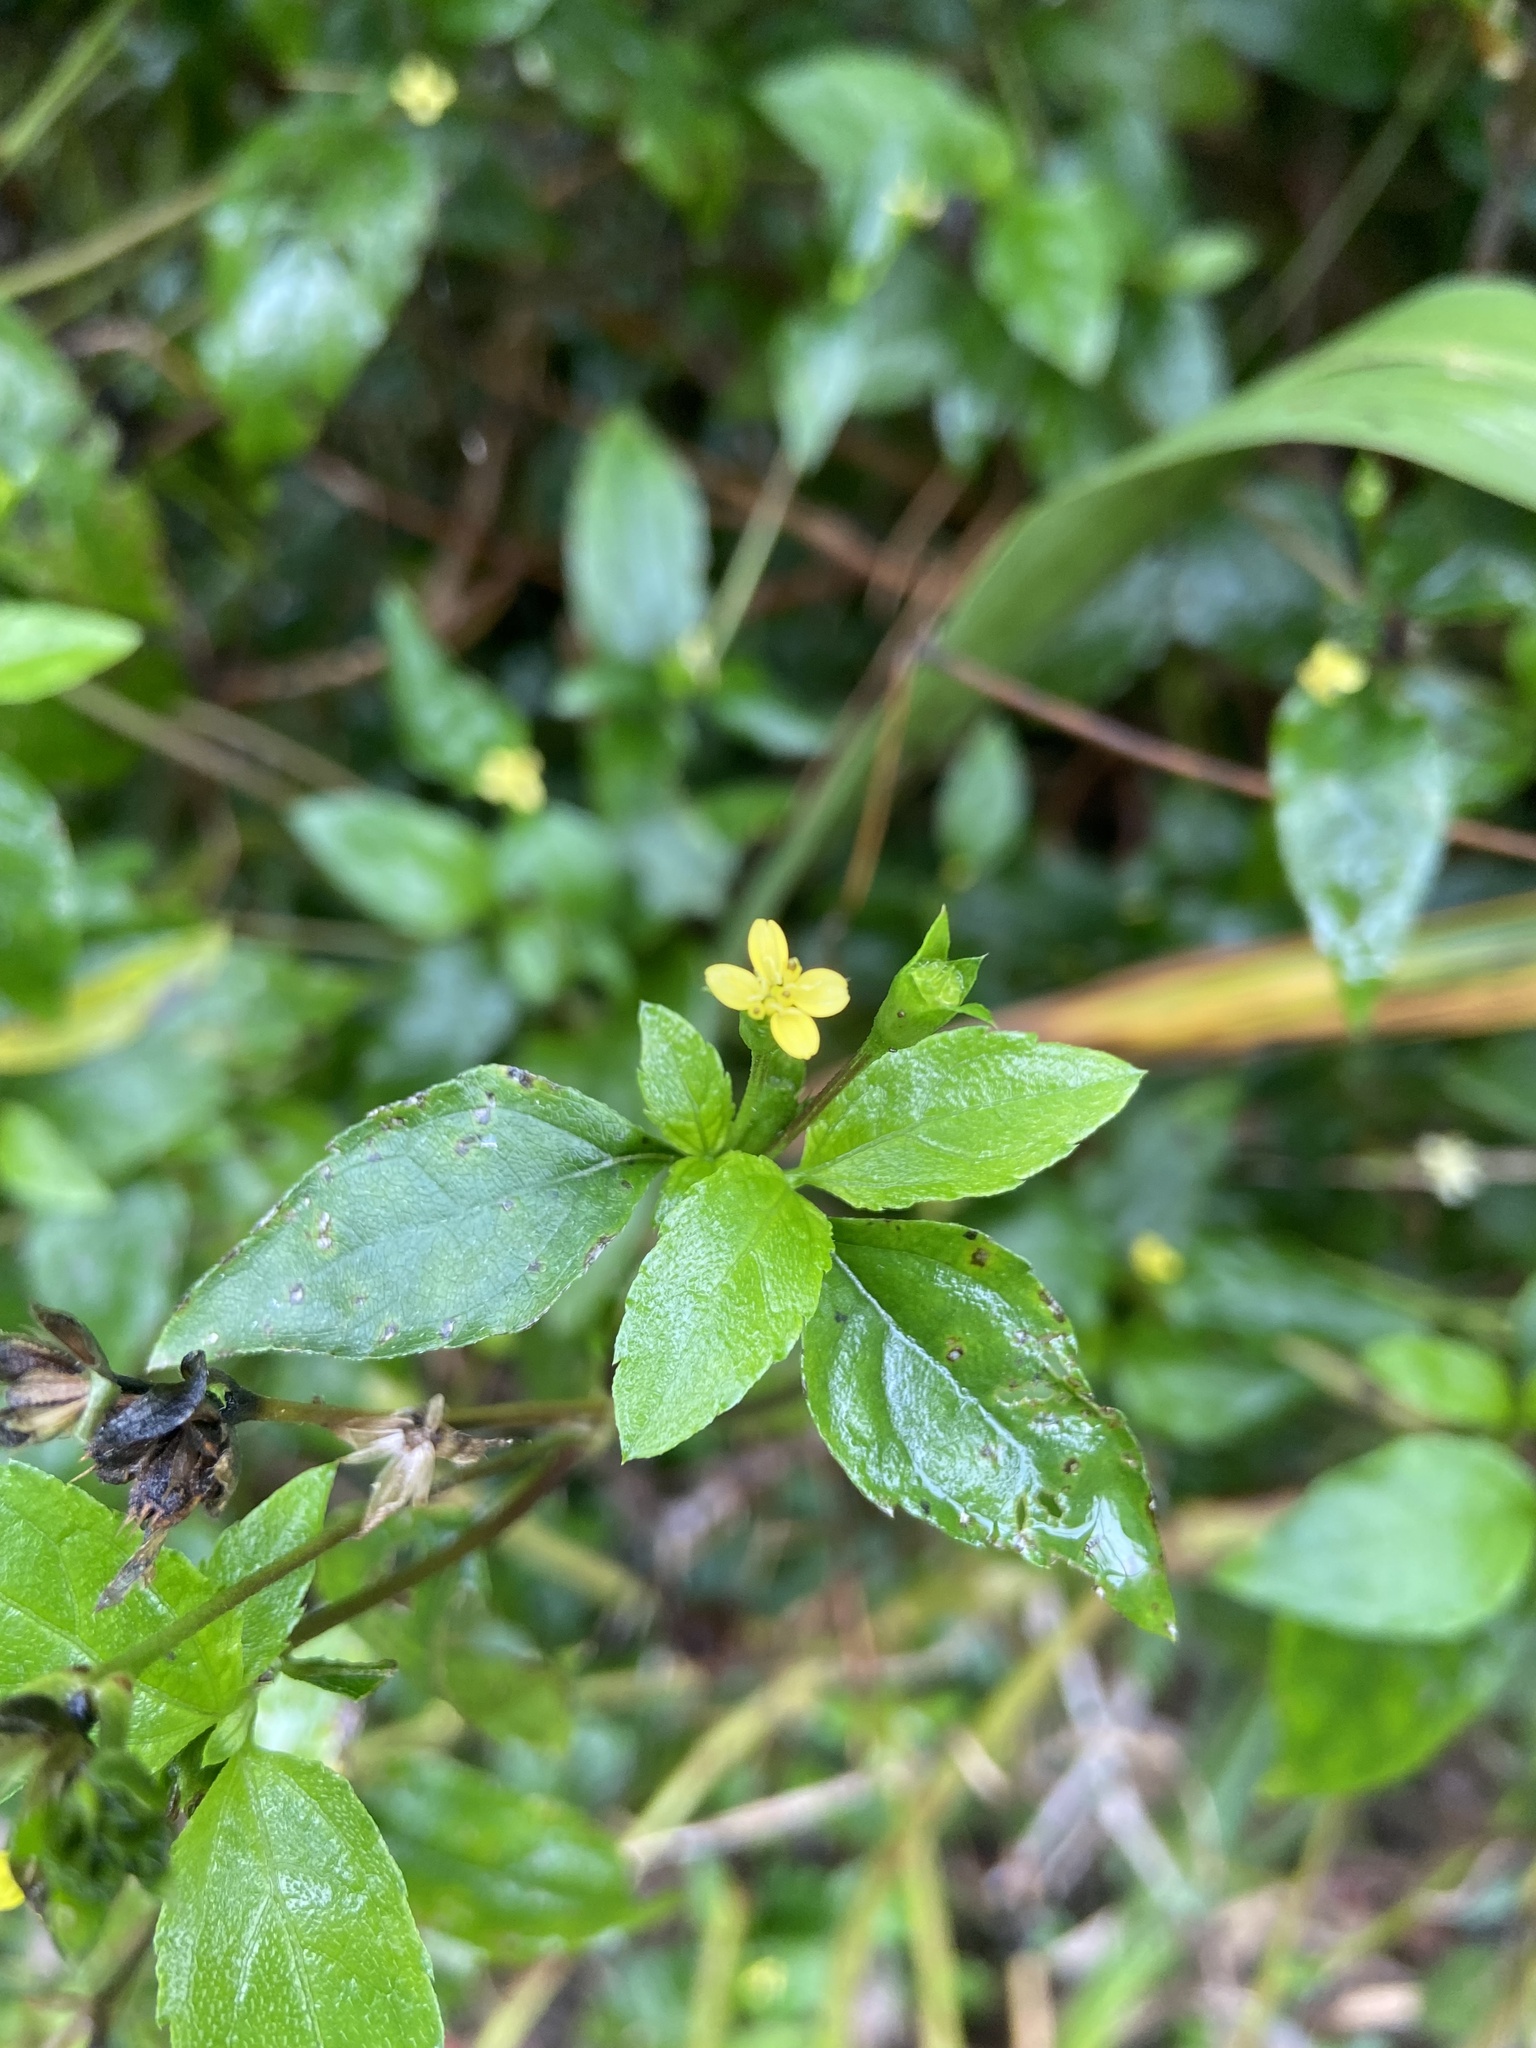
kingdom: Plantae
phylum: Tracheophyta
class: Magnoliopsida
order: Asterales
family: Asteraceae
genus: Calyptocarpus
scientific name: Calyptocarpus brasiliensis
